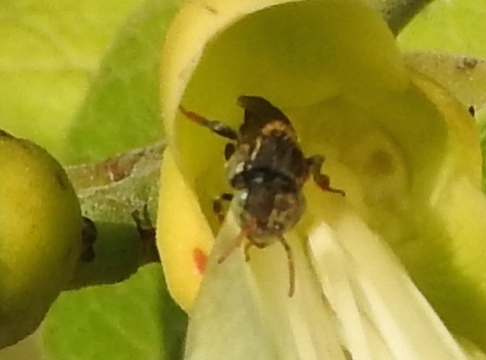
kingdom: Animalia
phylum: Arthropoda
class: Insecta
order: Hymenoptera
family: Apidae
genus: Nannotrigona
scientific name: Nannotrigona perilampoides
